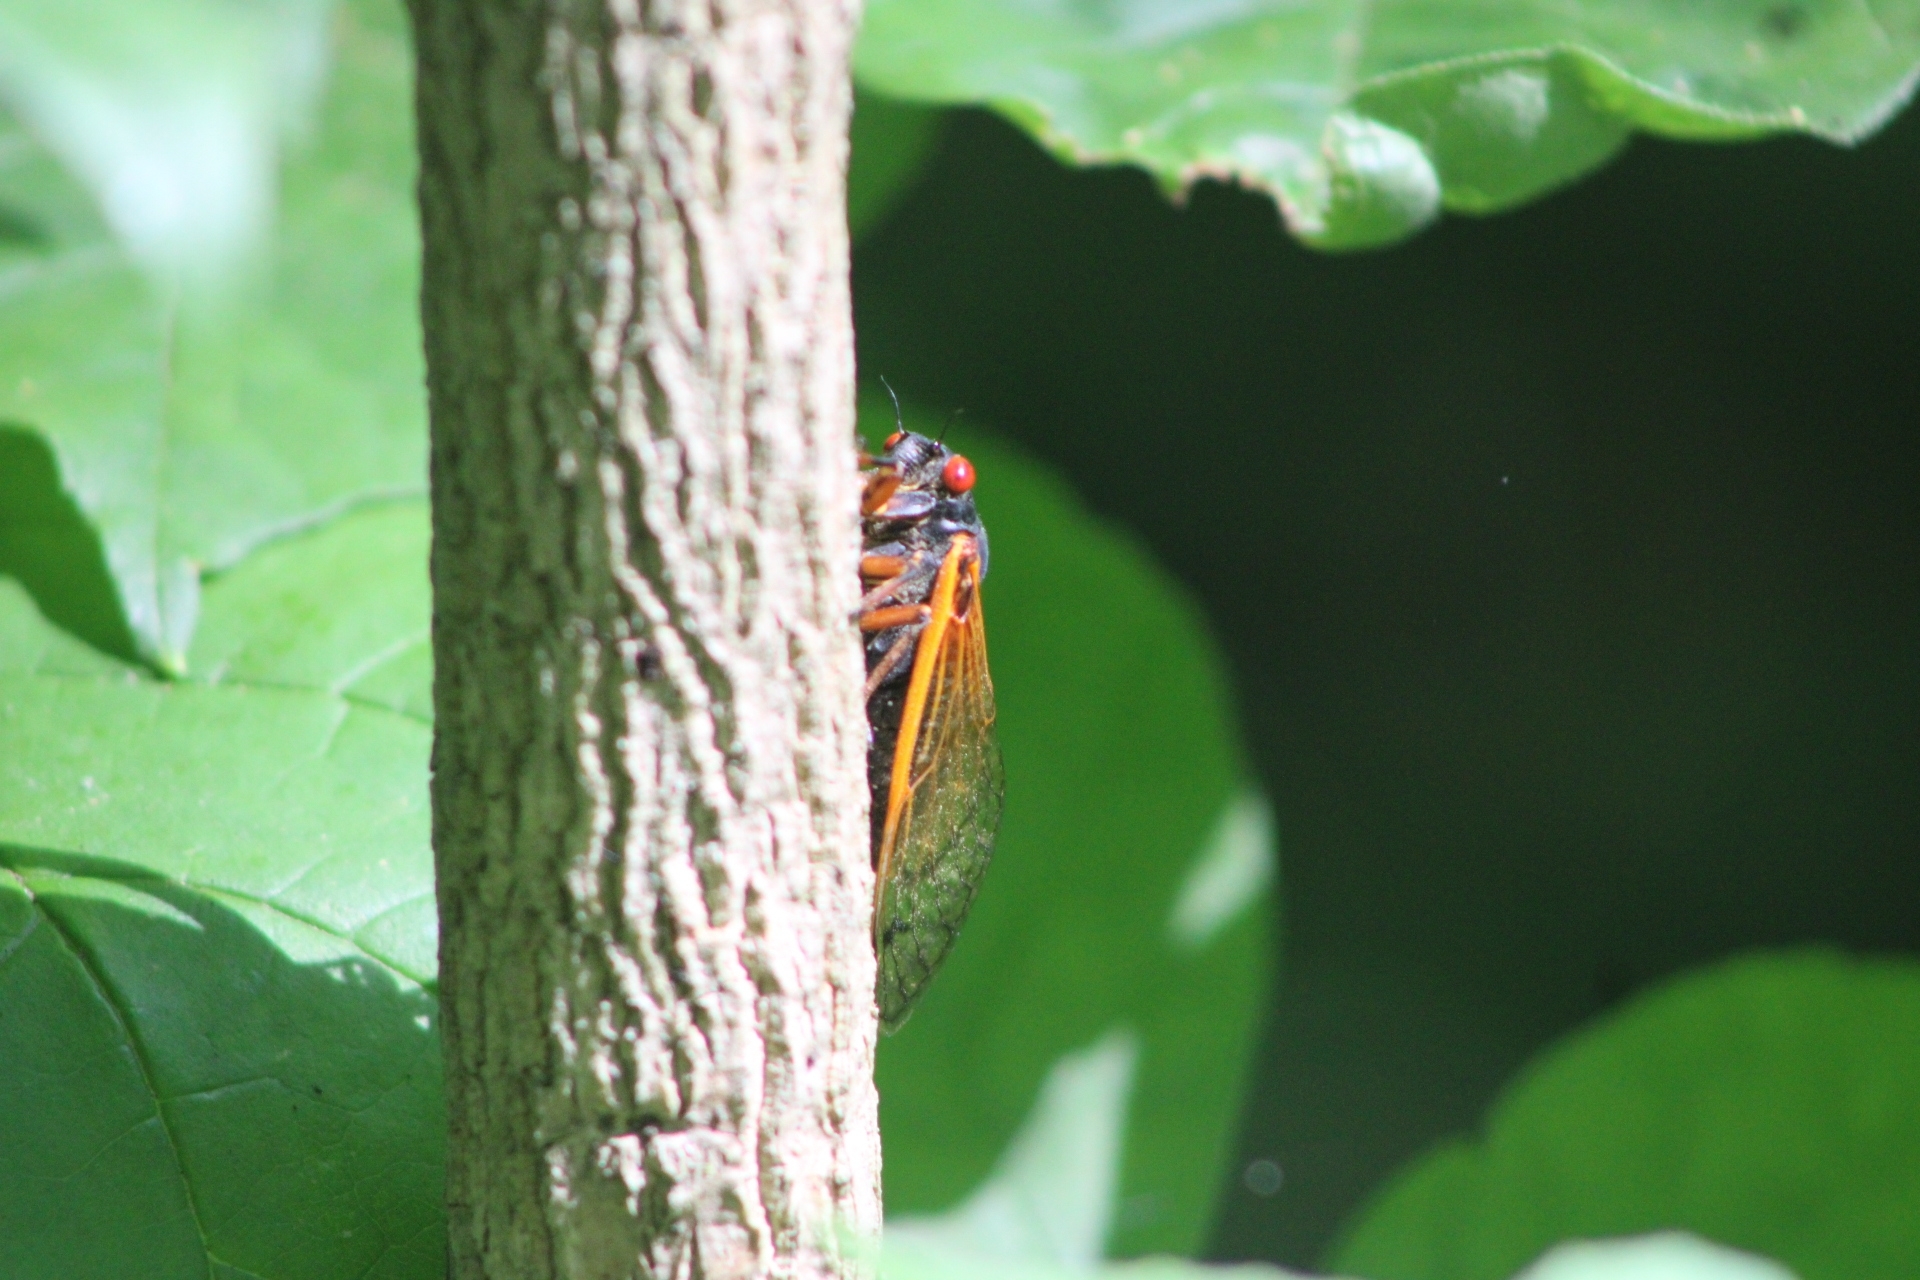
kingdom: Animalia
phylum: Arthropoda
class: Insecta
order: Hemiptera
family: Cicadidae
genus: Magicicada
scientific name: Magicicada cassini
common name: Cassin's 17-year cicada
